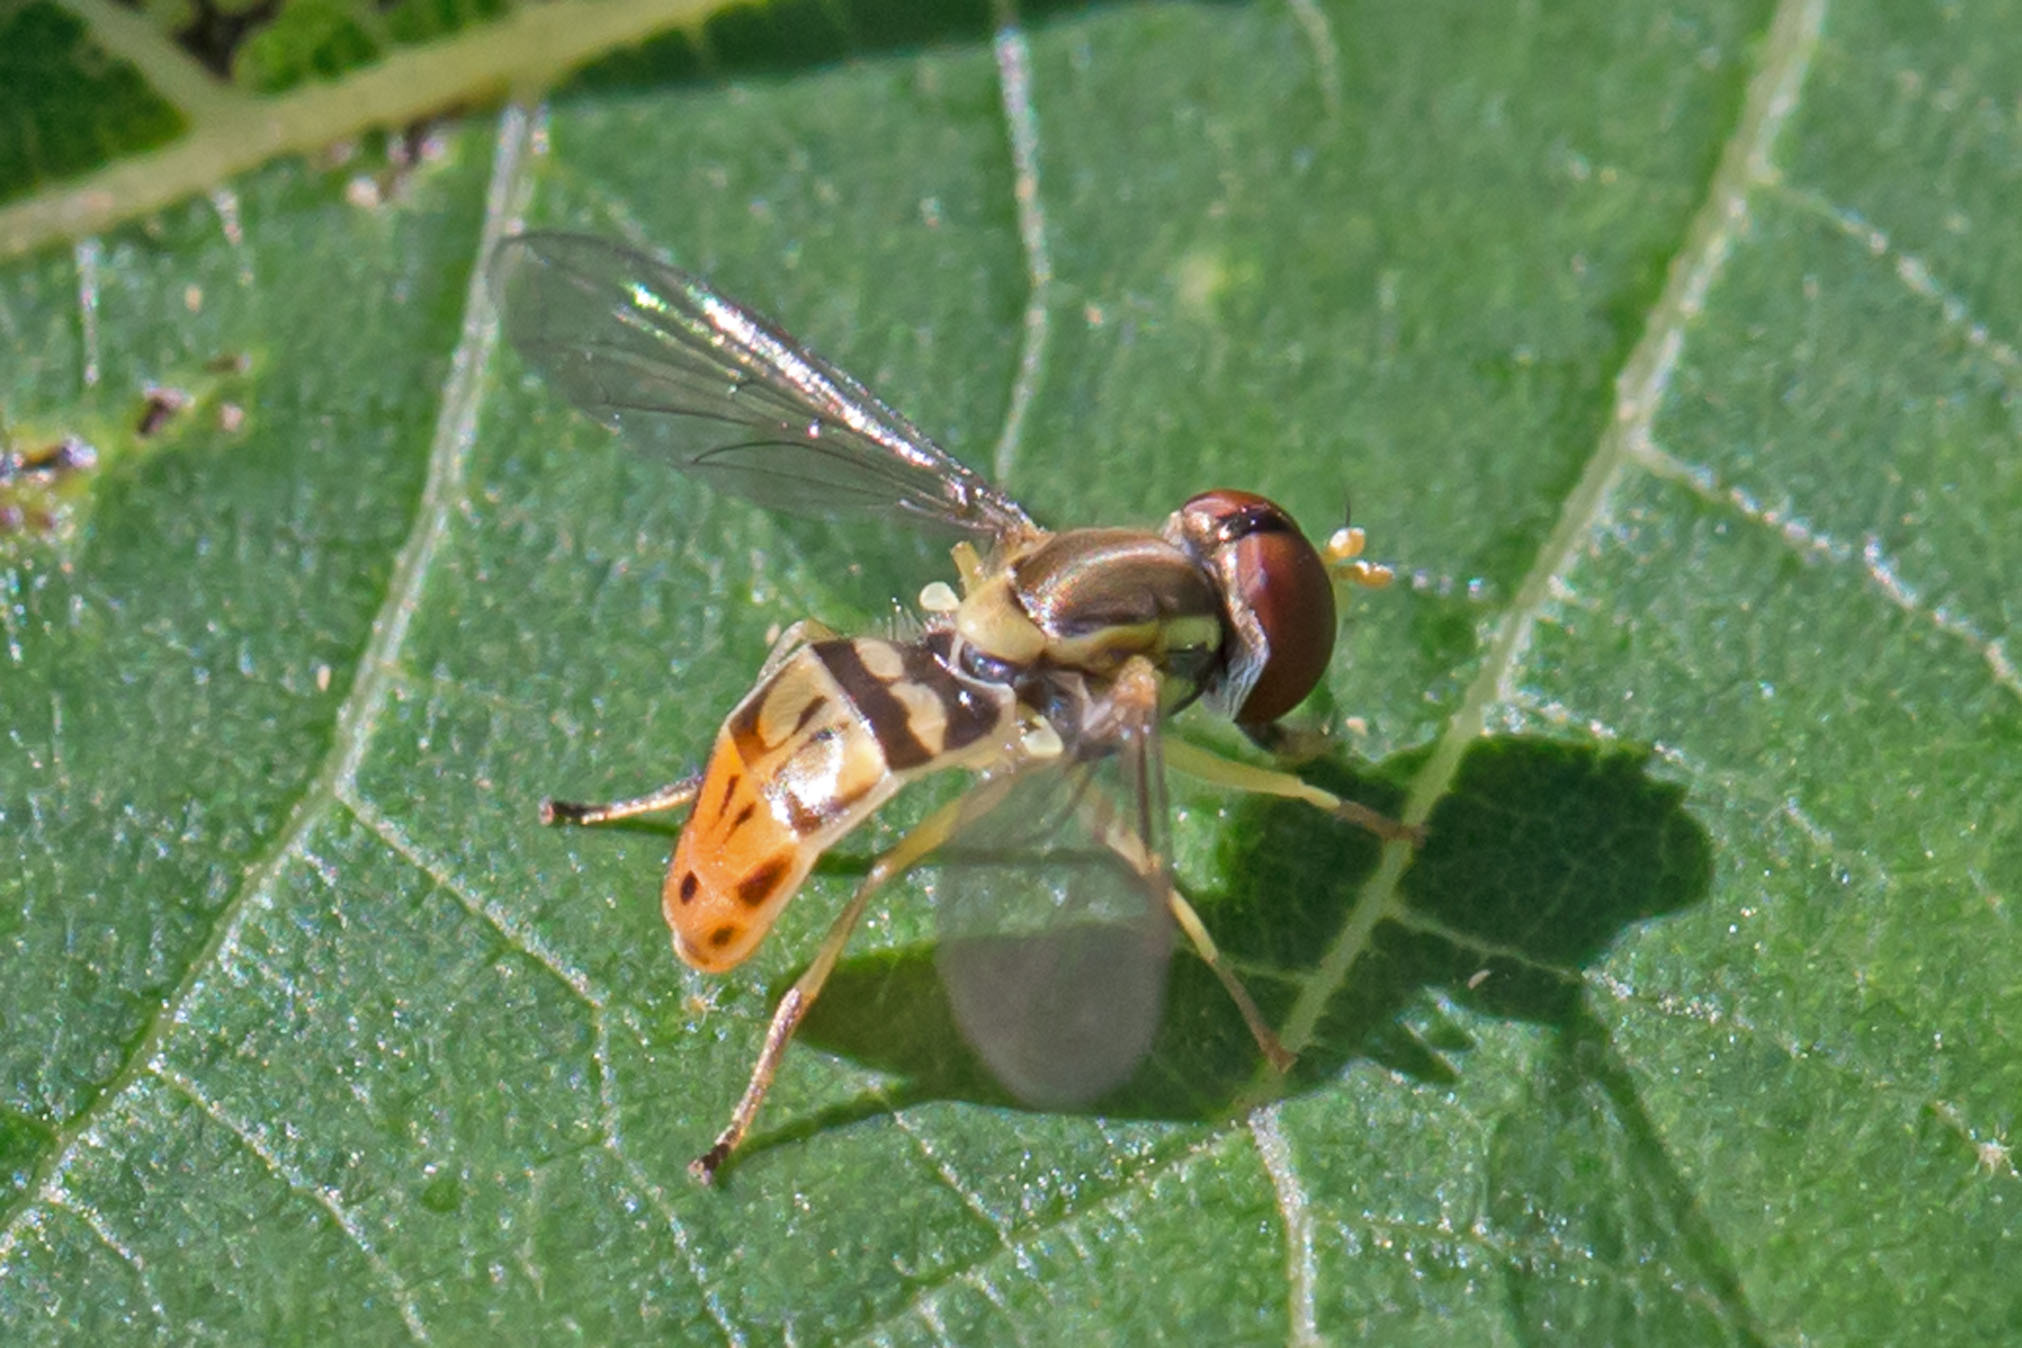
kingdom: Animalia
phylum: Arthropoda
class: Insecta
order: Diptera
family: Syrphidae
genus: Toxomerus
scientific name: Toxomerus marginatus
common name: Syrphid fly
